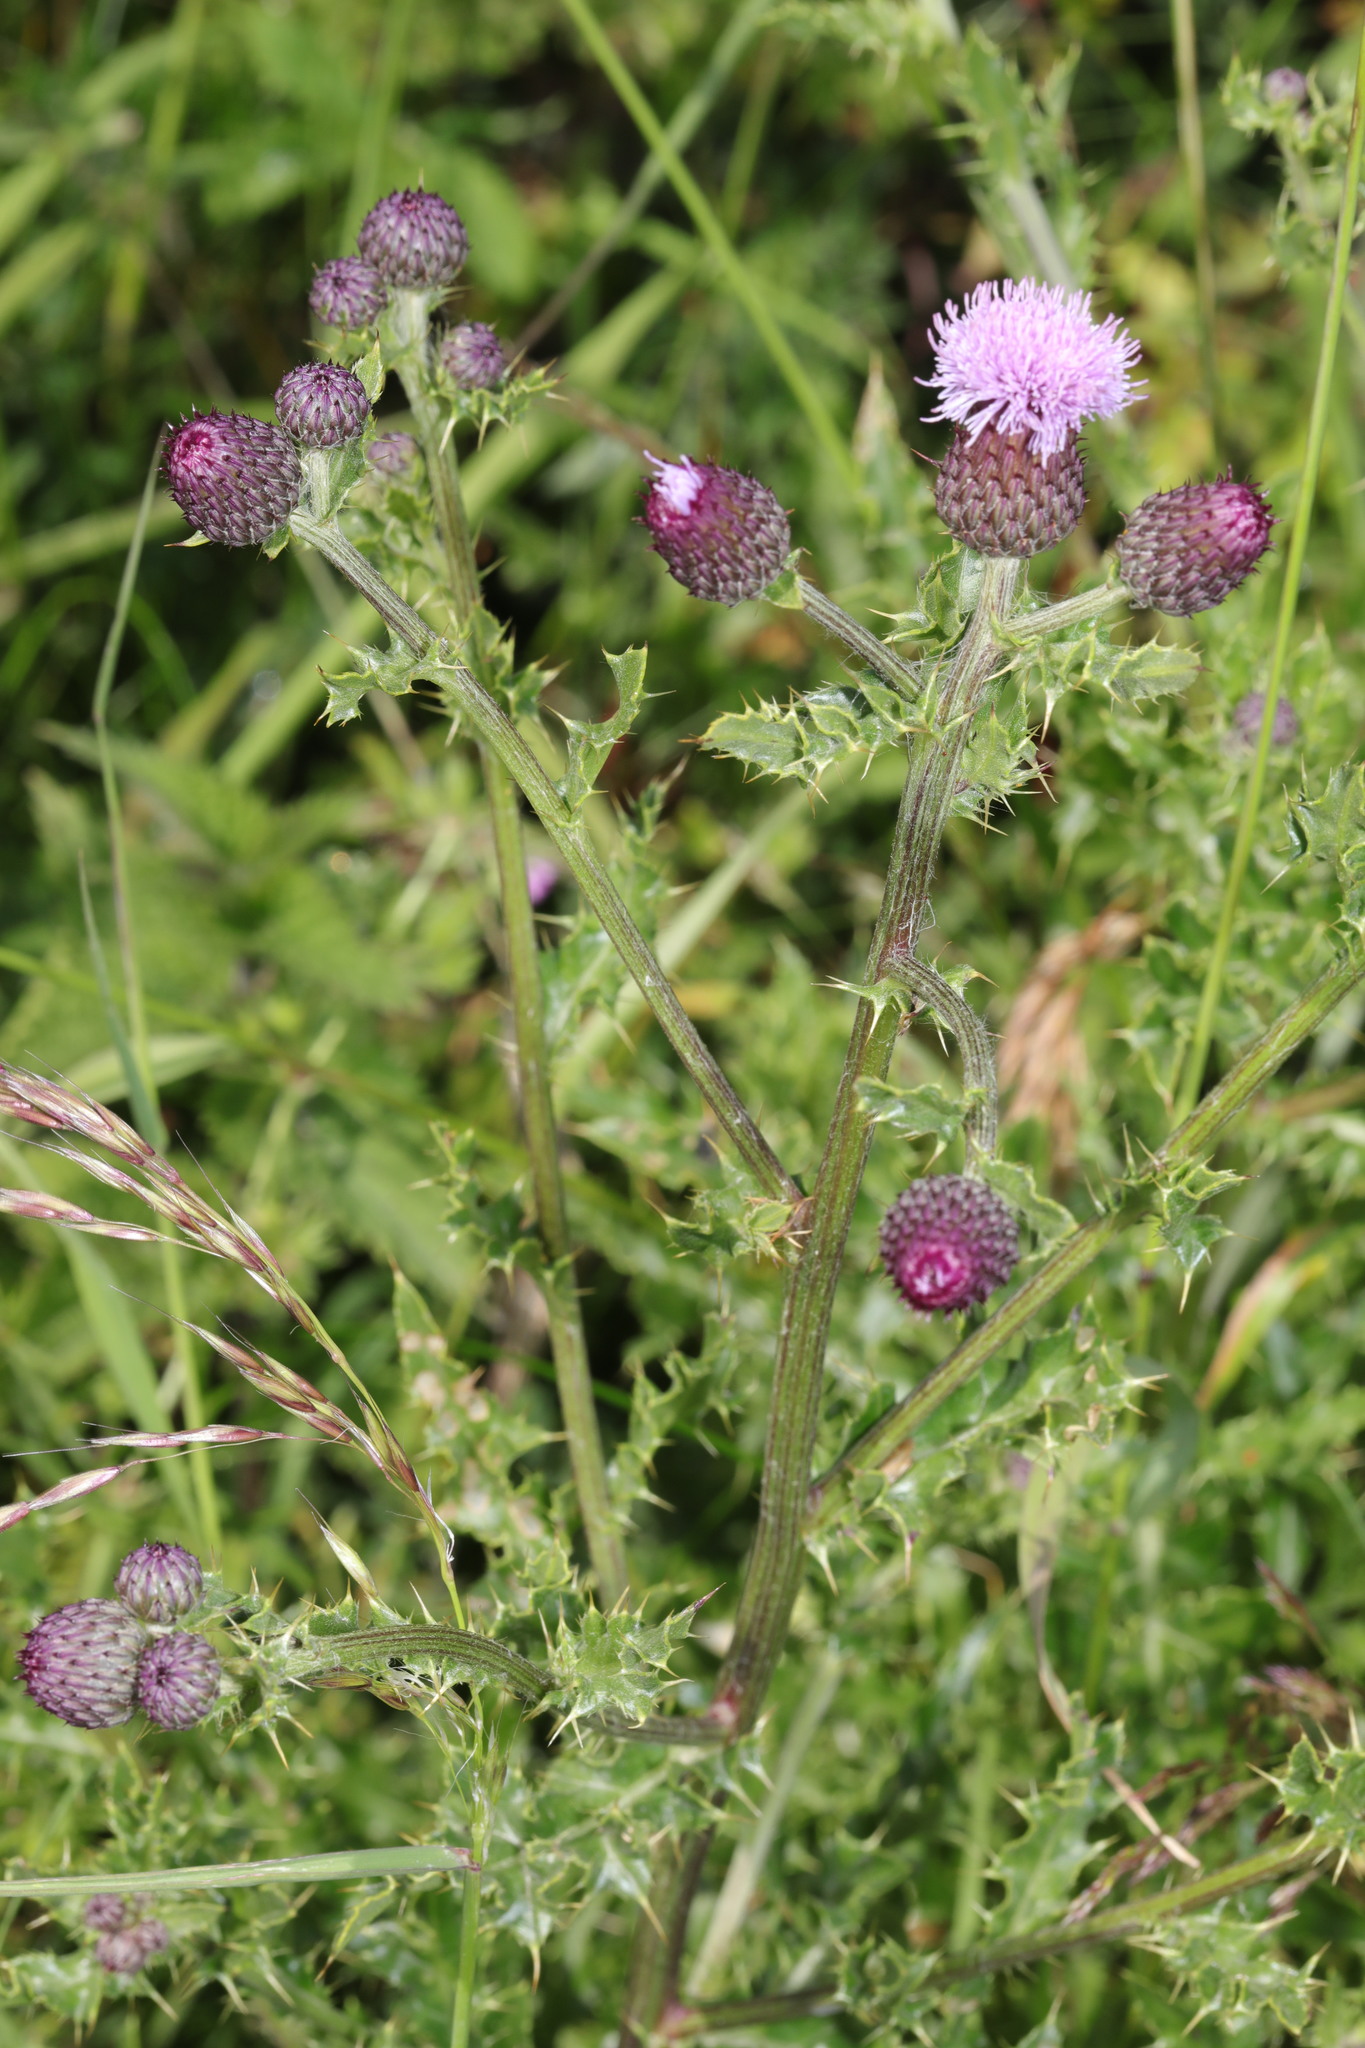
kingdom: Plantae
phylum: Tracheophyta
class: Magnoliopsida
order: Asterales
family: Asteraceae
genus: Cirsium
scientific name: Cirsium arvense
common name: Creeping thistle
